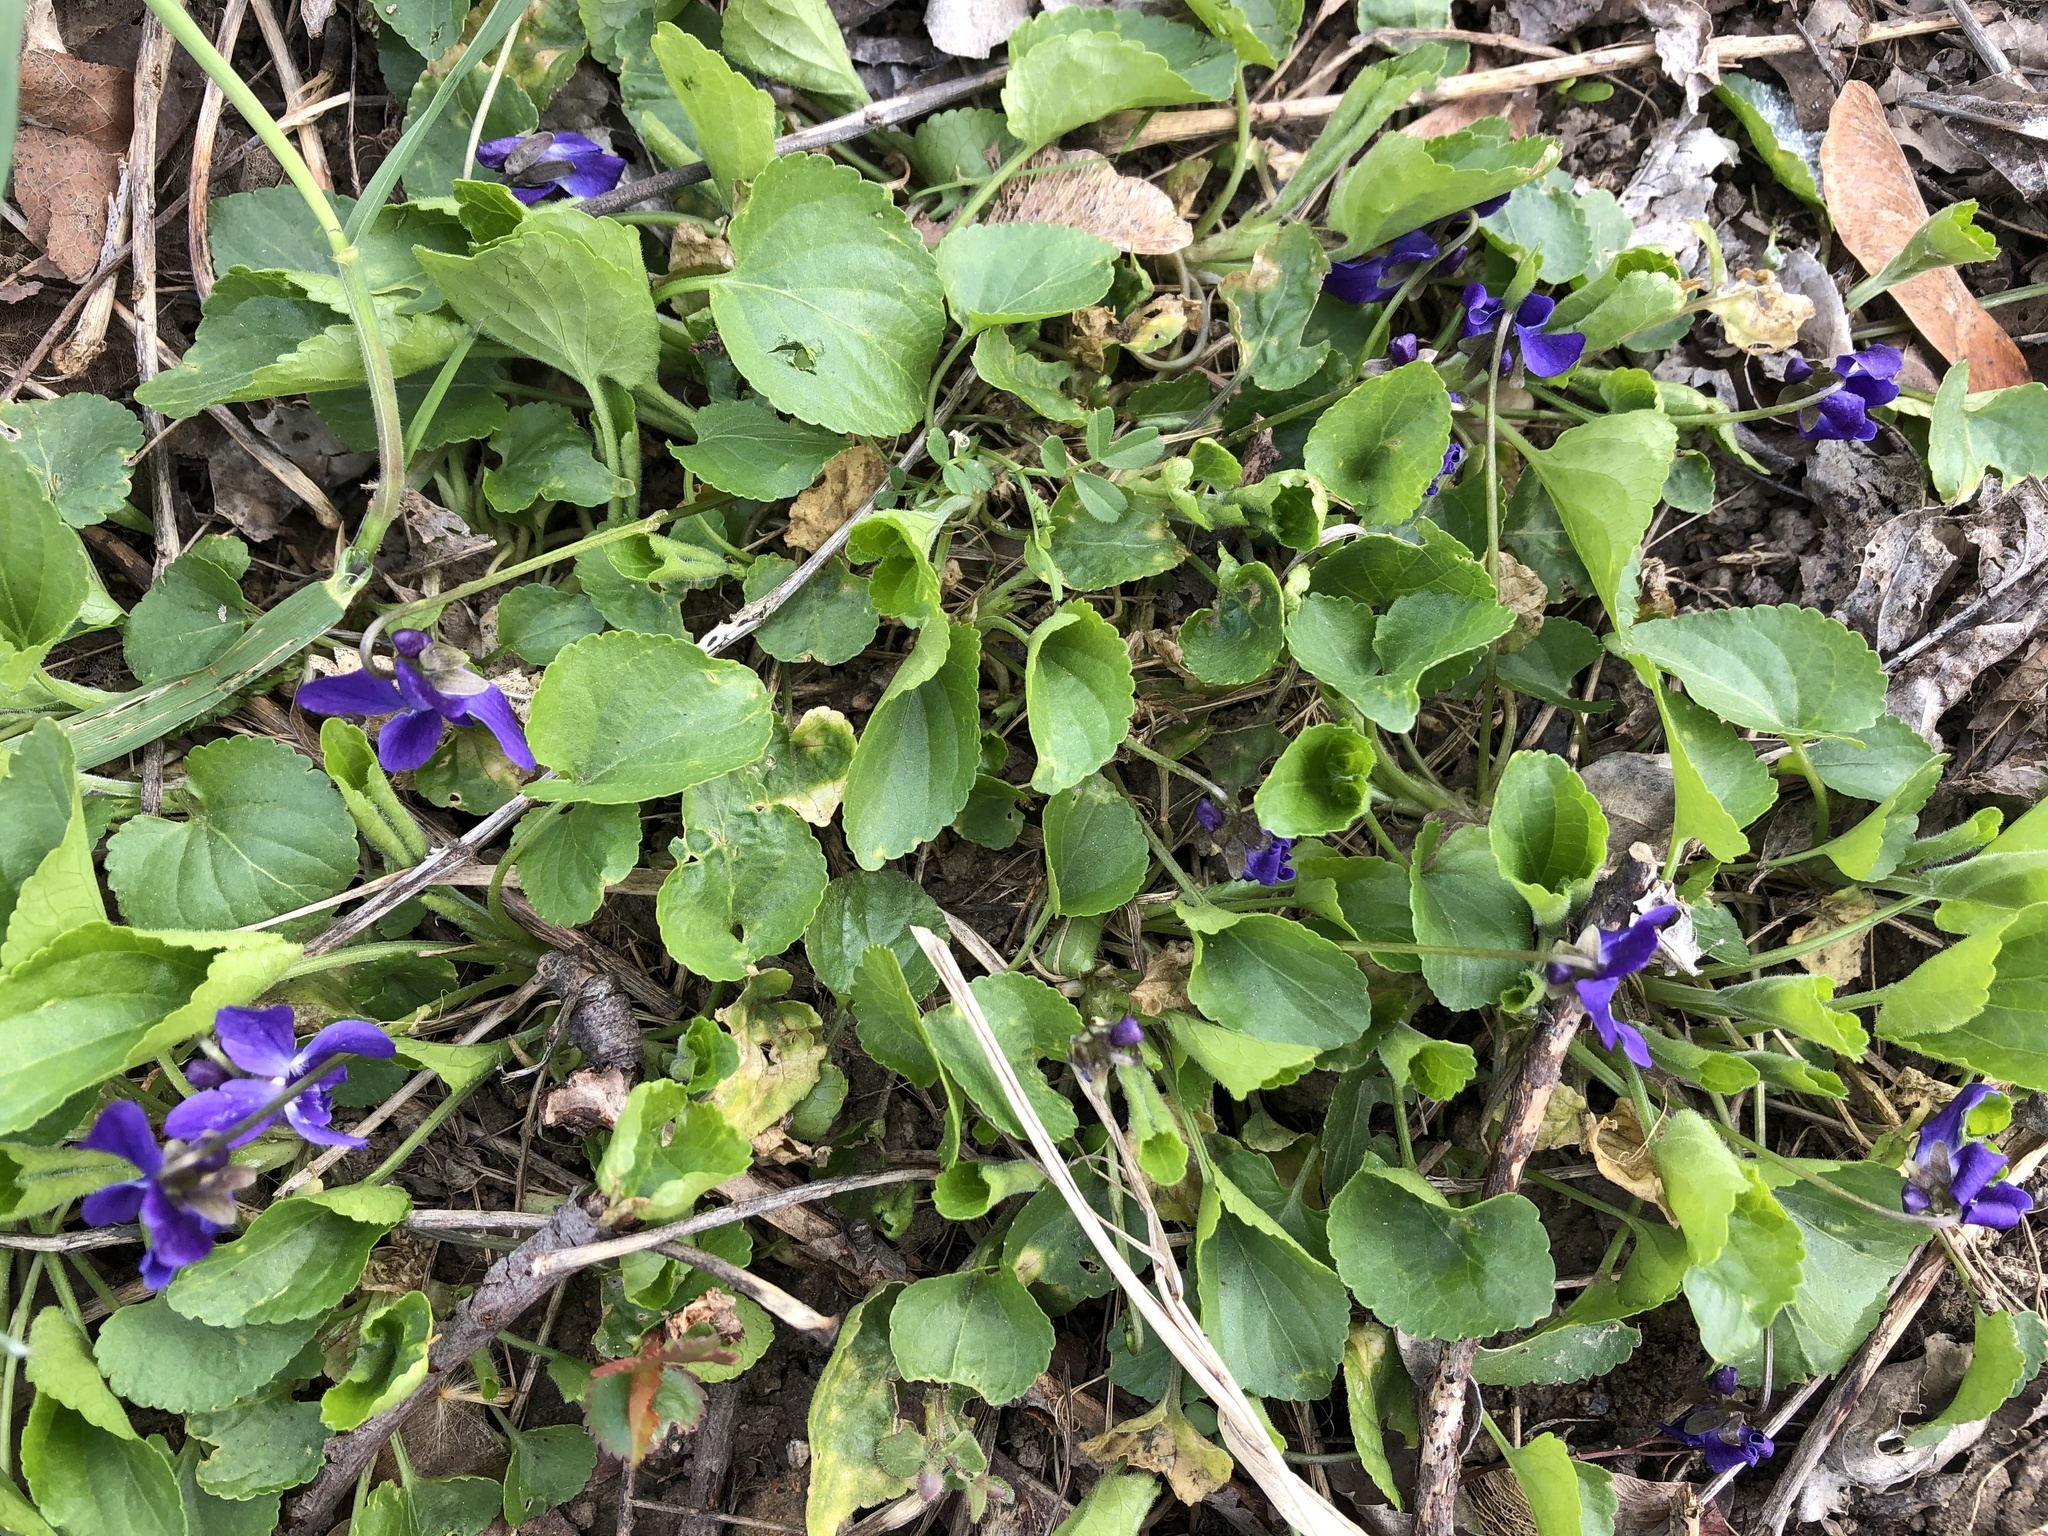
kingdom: Plantae
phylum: Tracheophyta
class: Magnoliopsida
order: Malpighiales
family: Violaceae
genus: Viola
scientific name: Viola odorata
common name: Sweet violet
